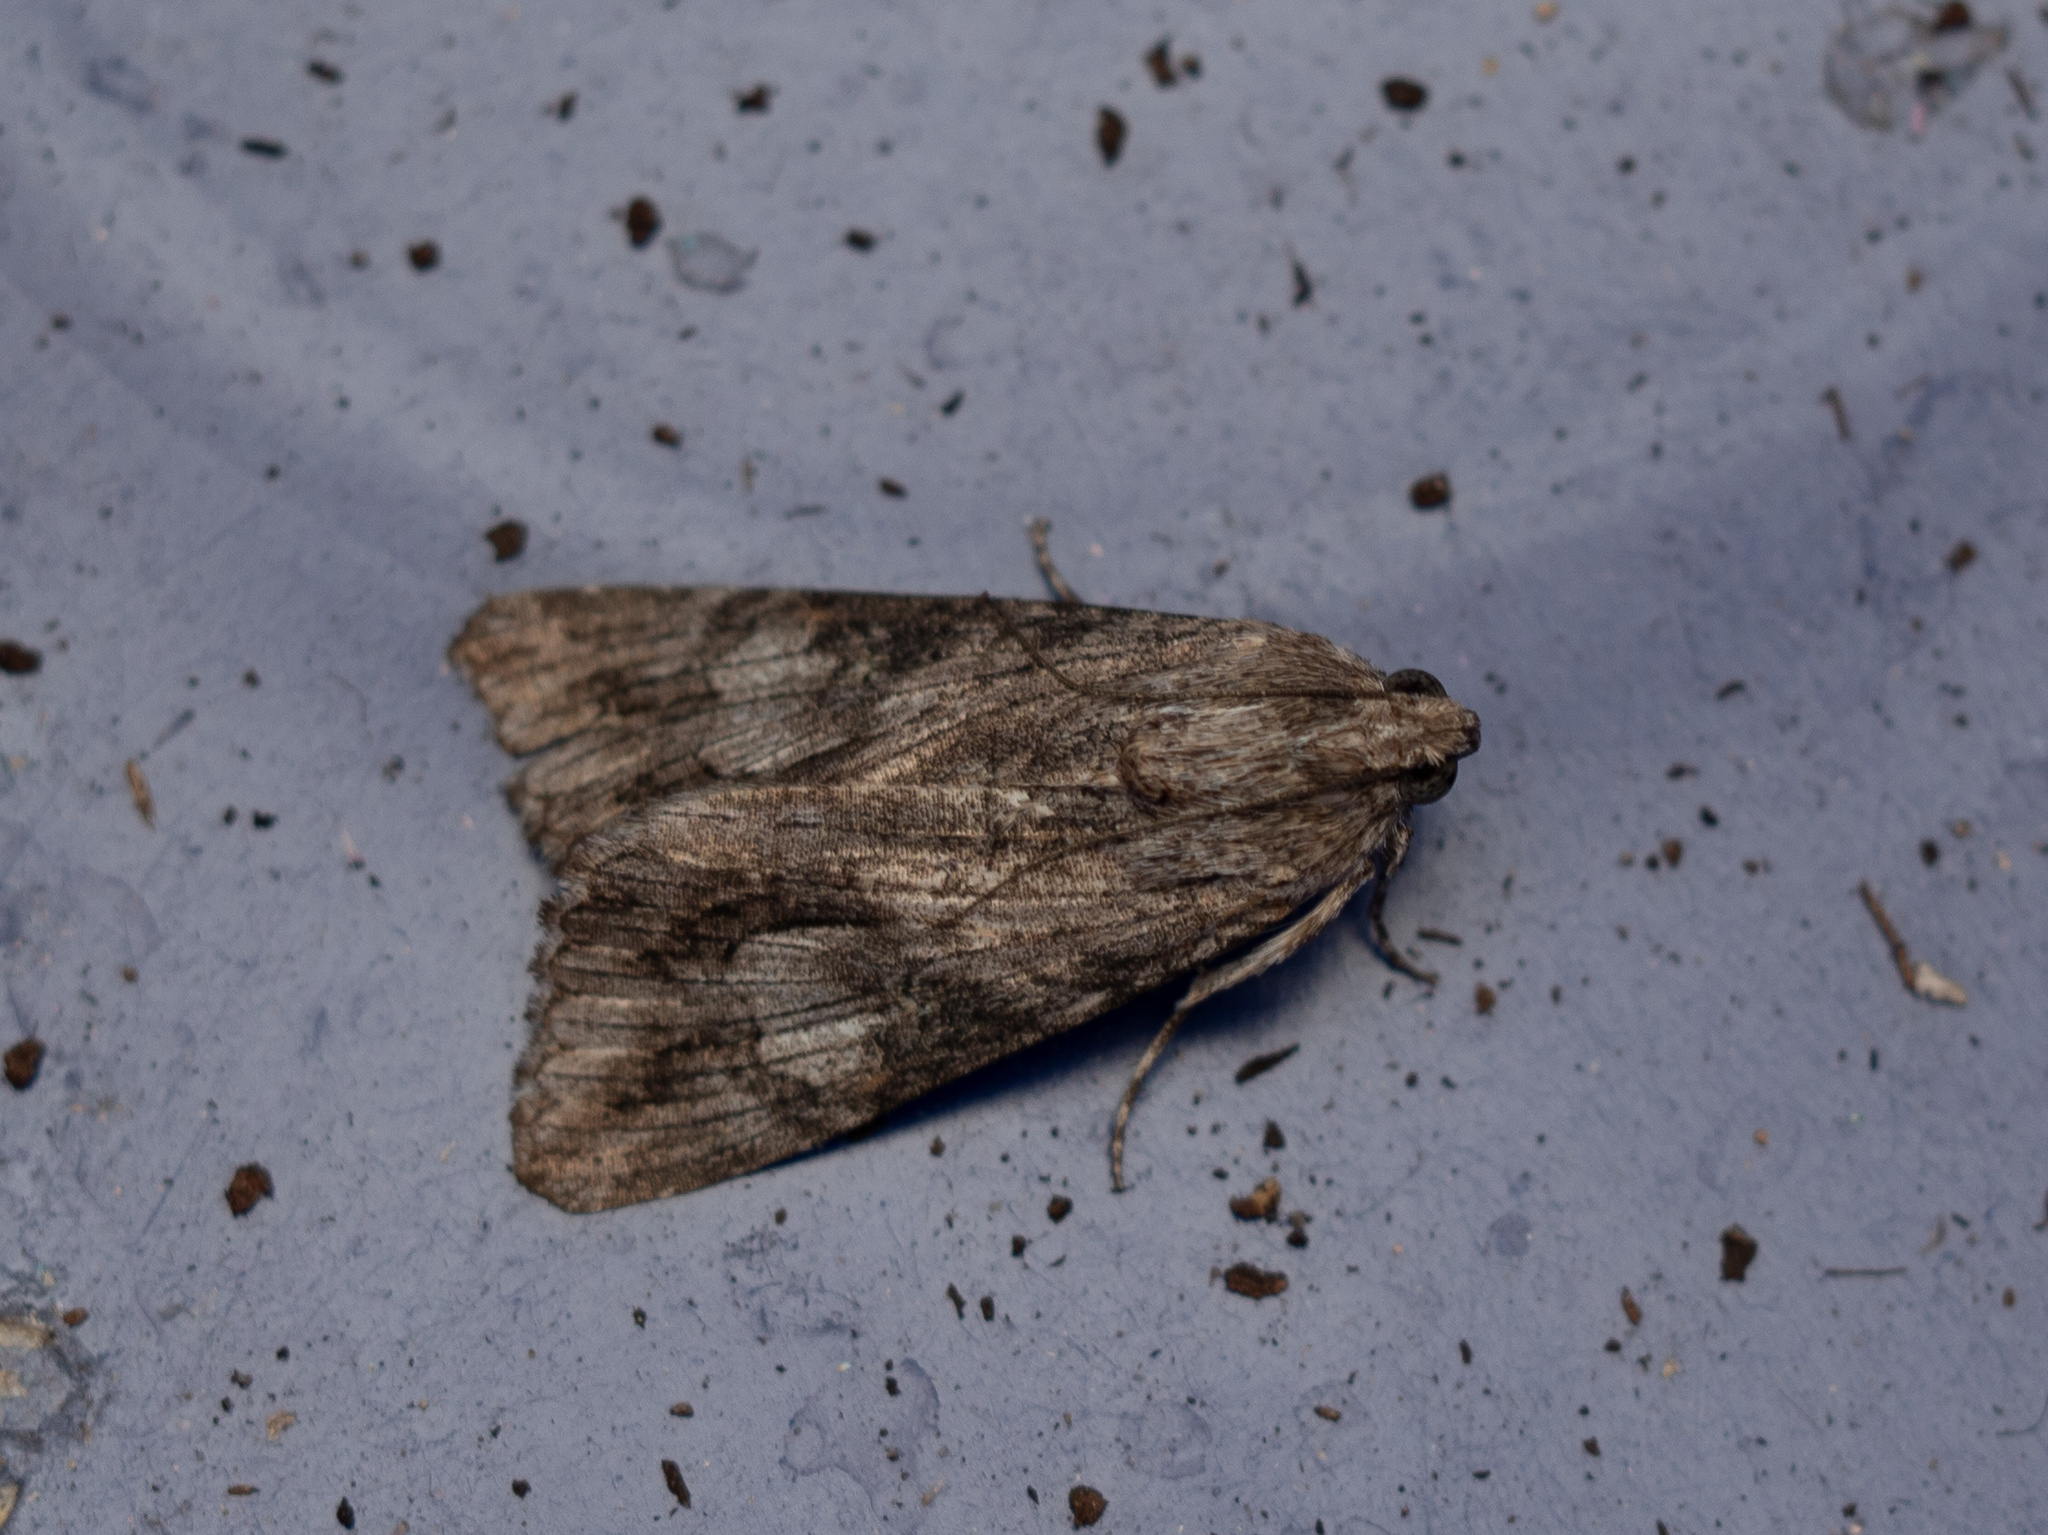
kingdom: Animalia
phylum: Arthropoda
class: Insecta
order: Lepidoptera
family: Erebidae
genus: Melipotis
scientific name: Melipotis jucunda
